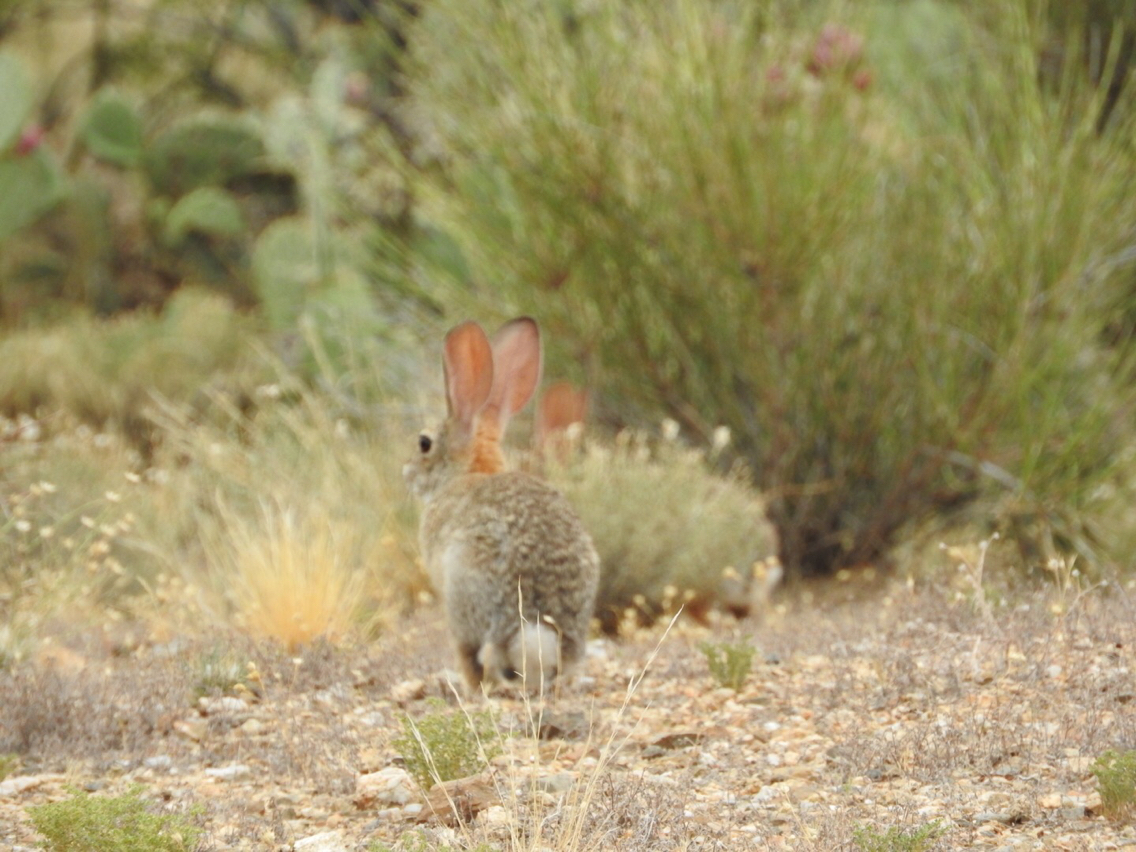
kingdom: Animalia
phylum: Chordata
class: Mammalia
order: Lagomorpha
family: Leporidae
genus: Sylvilagus
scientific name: Sylvilagus audubonii
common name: Desert cottontail
